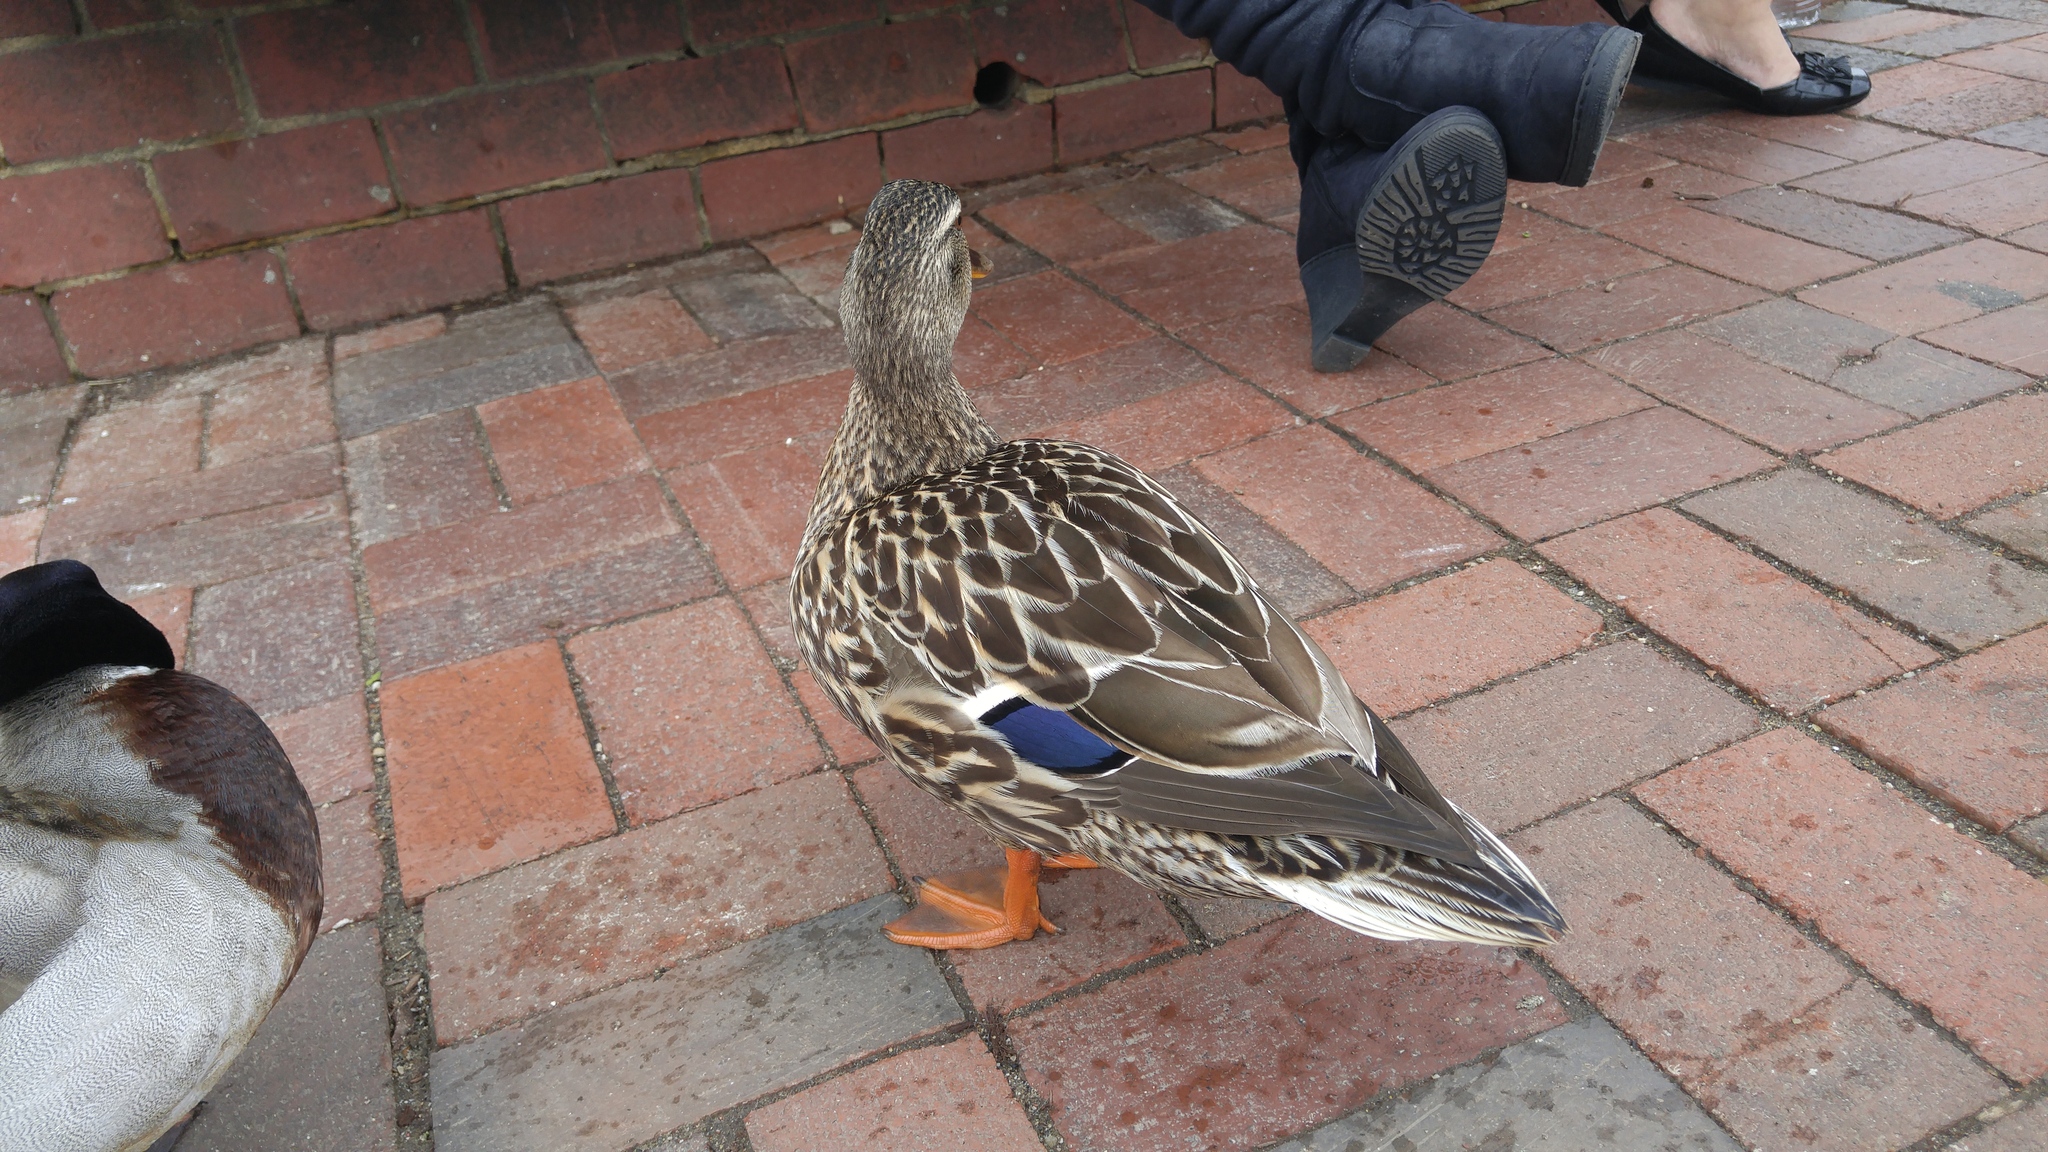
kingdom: Animalia
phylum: Chordata
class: Aves
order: Anseriformes
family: Anatidae
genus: Anas
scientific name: Anas platyrhynchos
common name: Mallard
